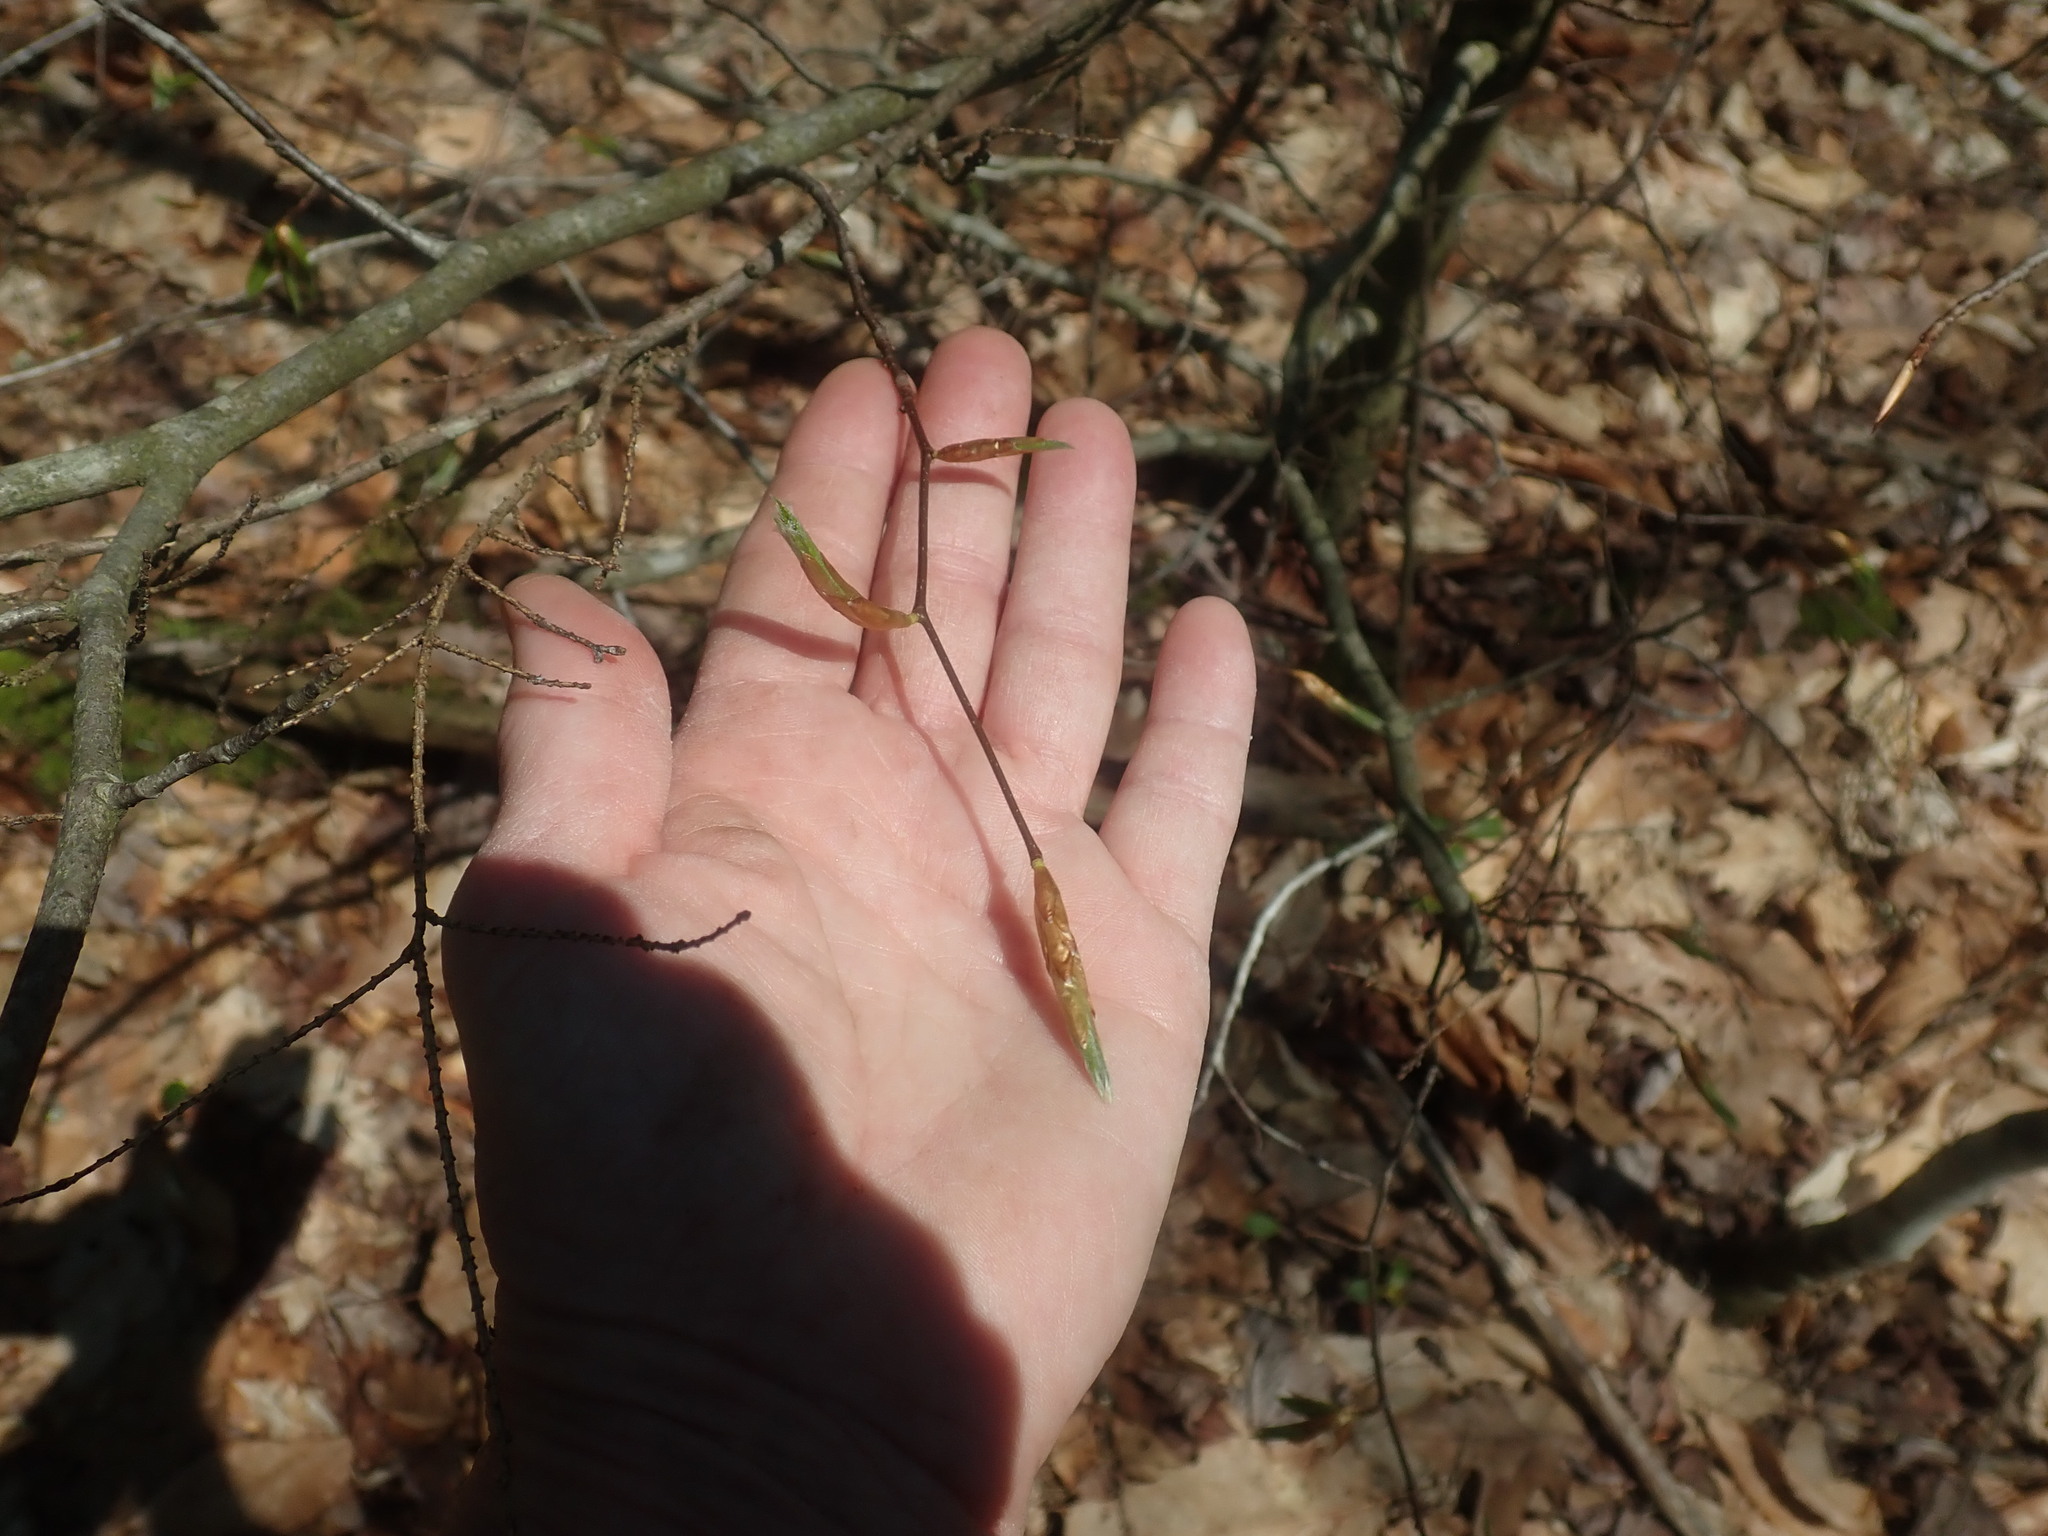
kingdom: Plantae
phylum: Tracheophyta
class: Magnoliopsida
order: Fagales
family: Fagaceae
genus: Fagus
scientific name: Fagus grandifolia
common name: American beech
